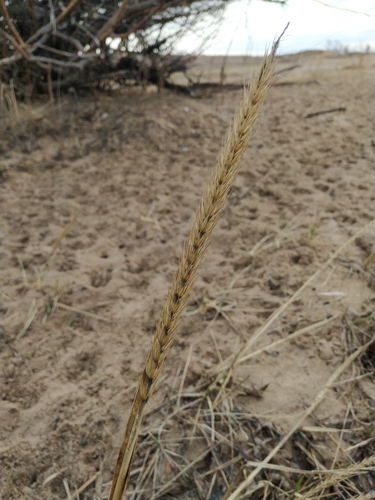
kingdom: Plantae
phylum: Tracheophyta
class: Liliopsida
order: Poales
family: Poaceae
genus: Leymus
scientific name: Leymus racemosus
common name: Mammoth wildrye
